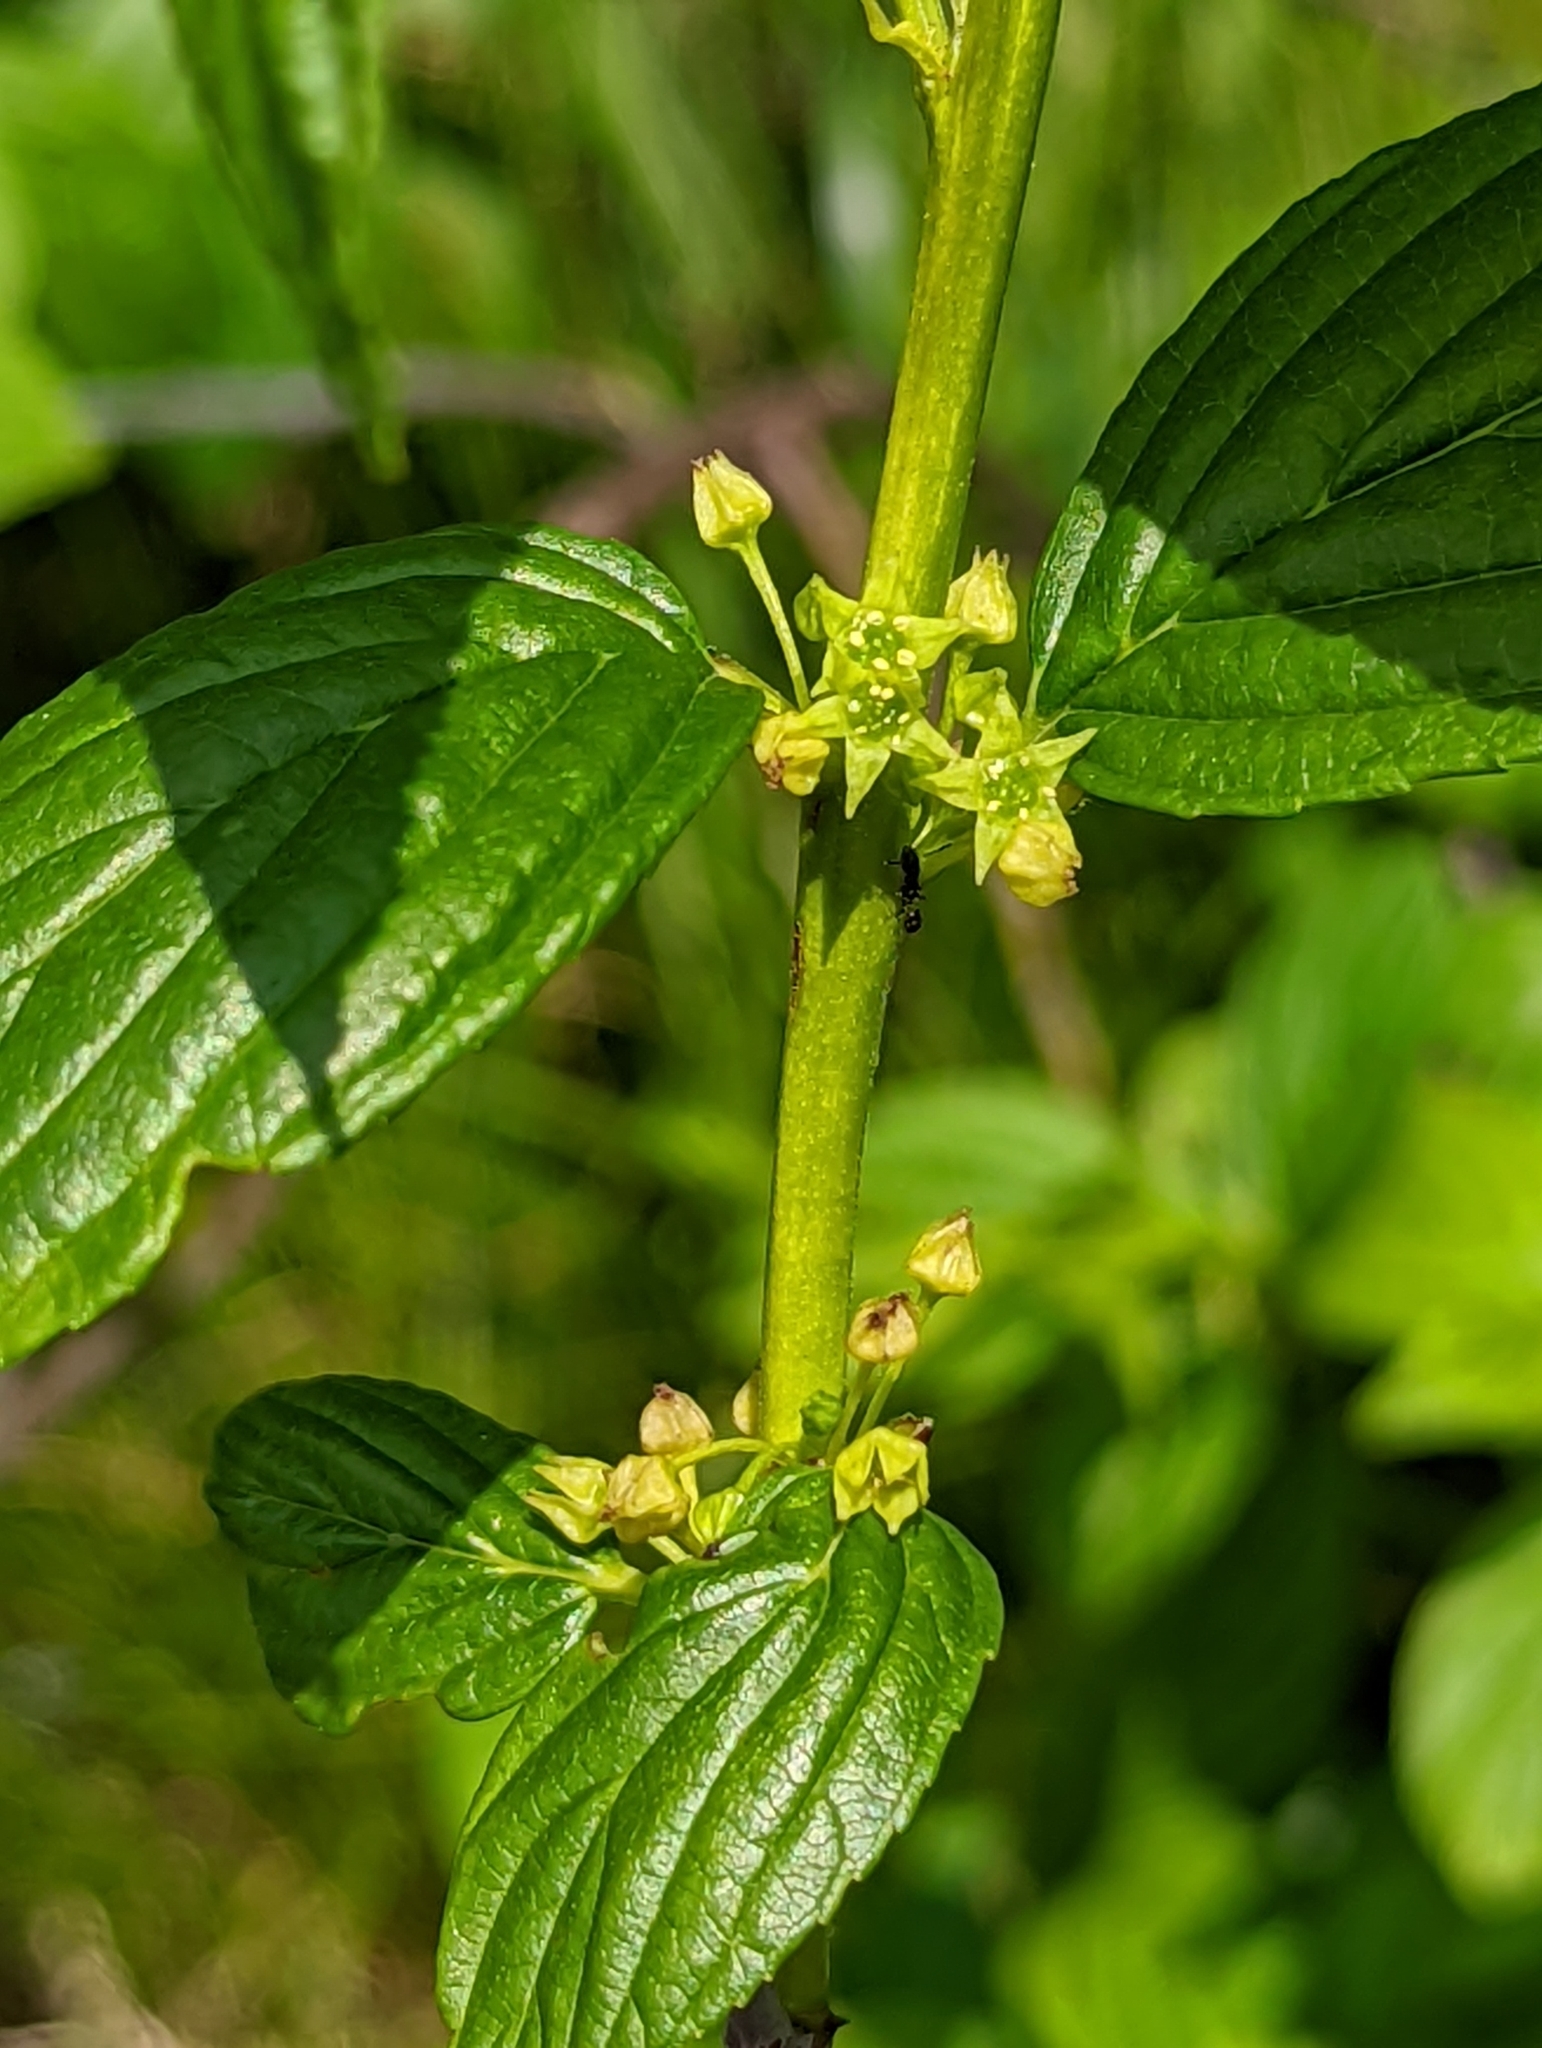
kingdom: Plantae
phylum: Tracheophyta
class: Magnoliopsida
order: Rosales
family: Rhamnaceae
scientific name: Rhamnaceae
